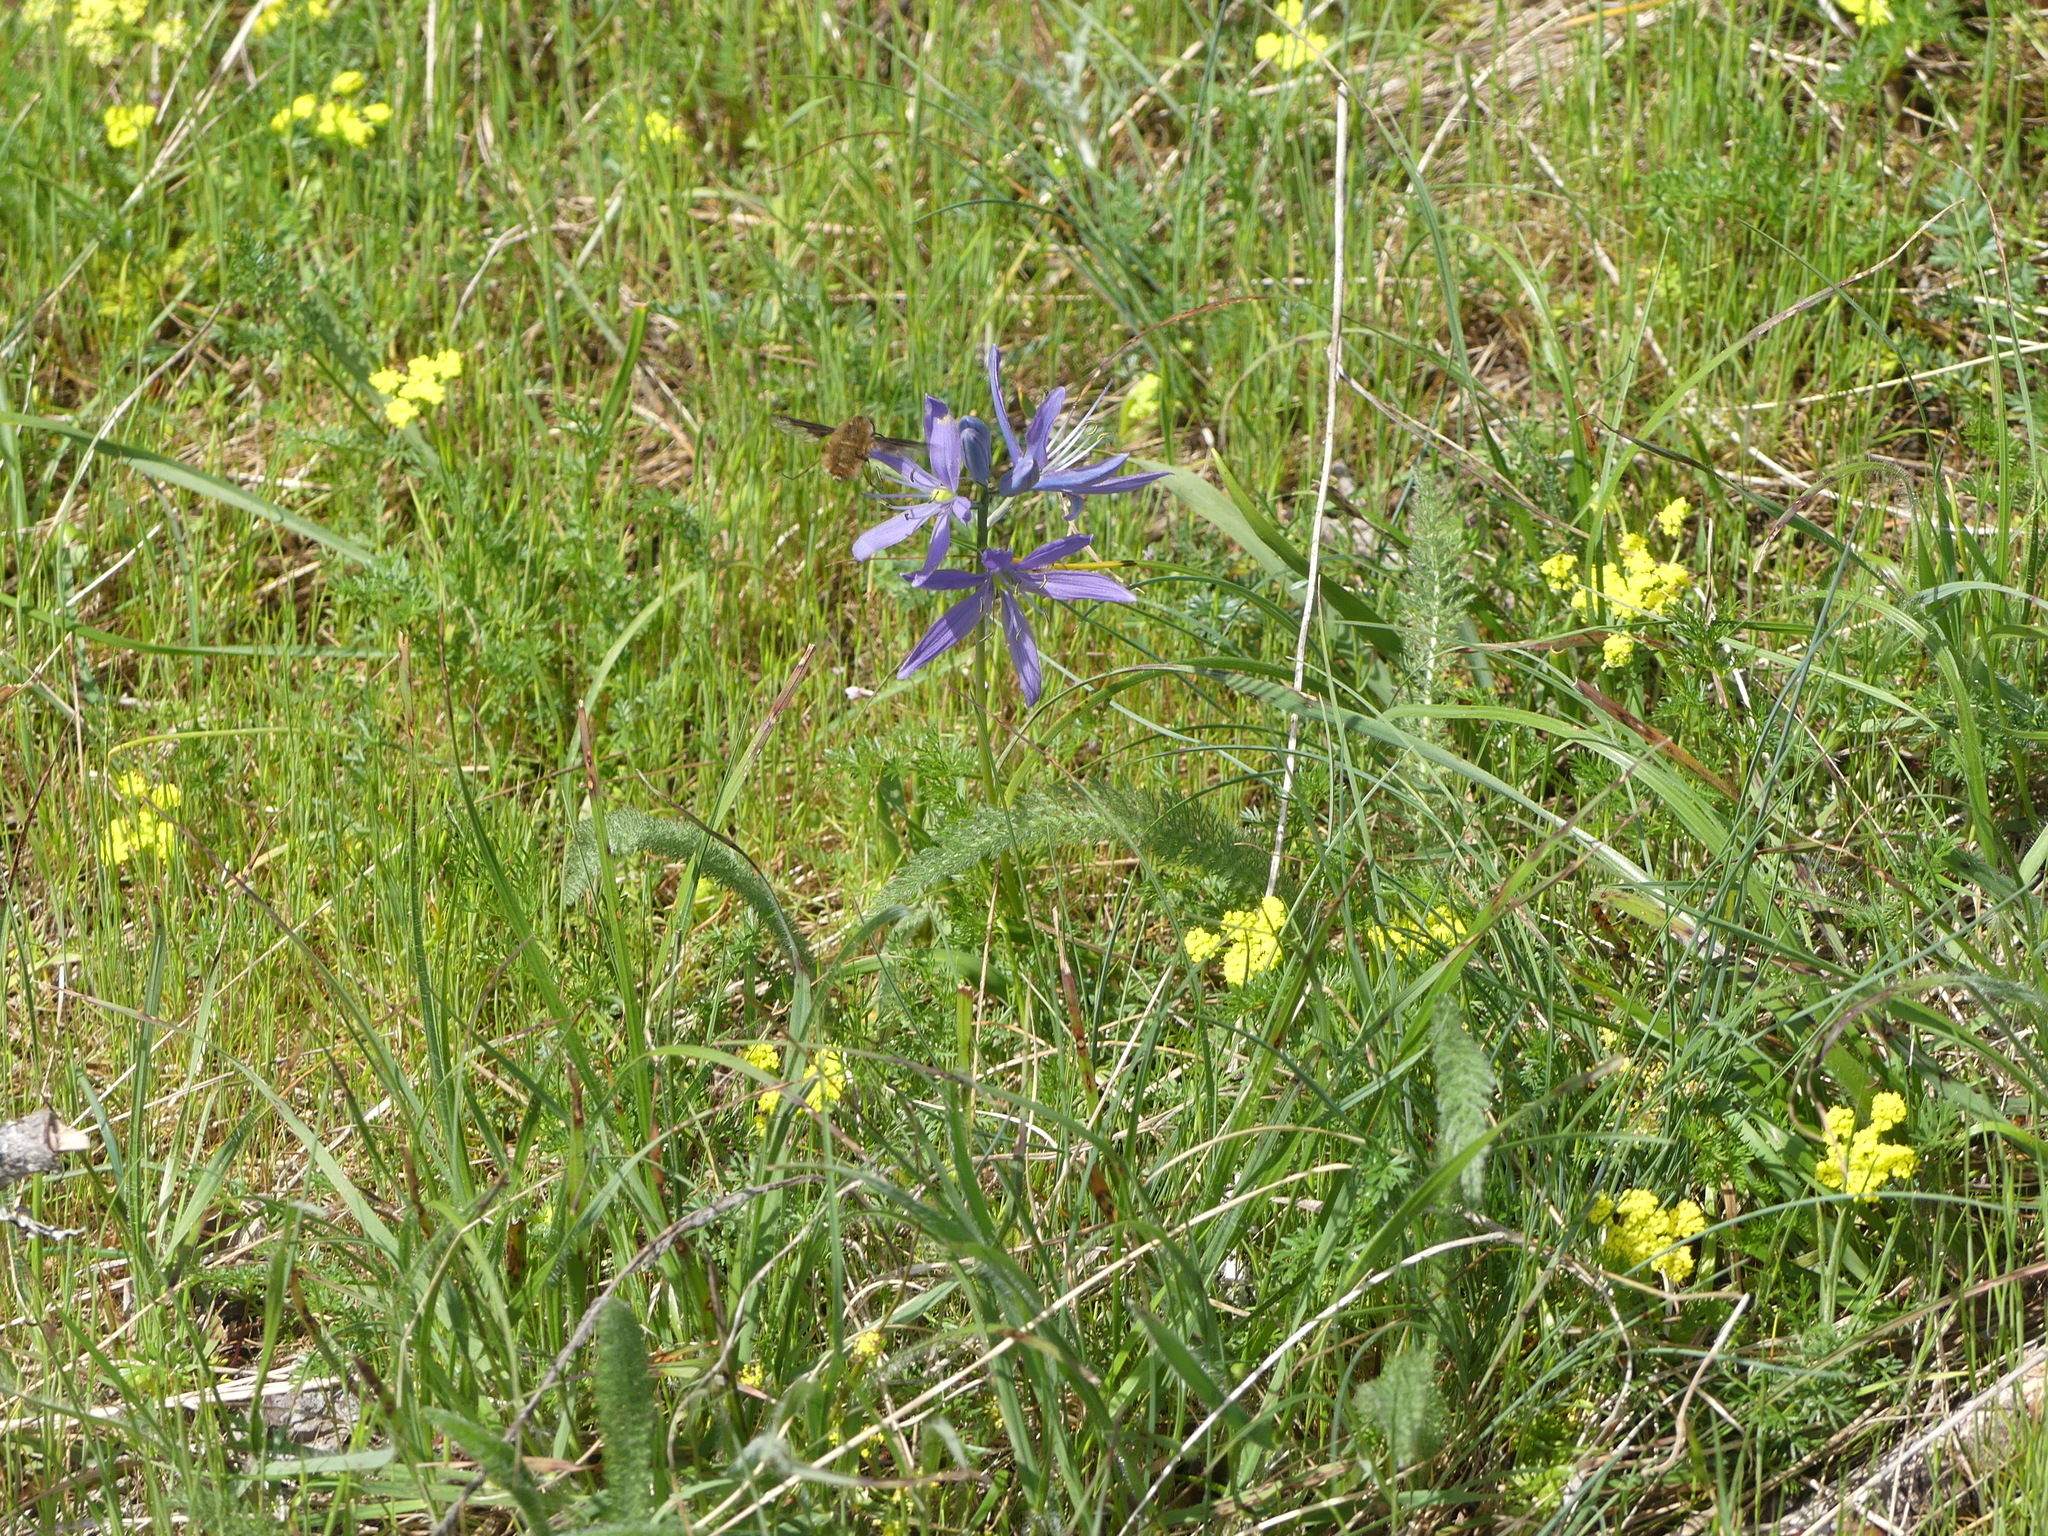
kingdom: Animalia
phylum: Arthropoda
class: Insecta
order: Diptera
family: Bombyliidae
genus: Bombylius
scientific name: Bombylius major
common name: Bee fly
